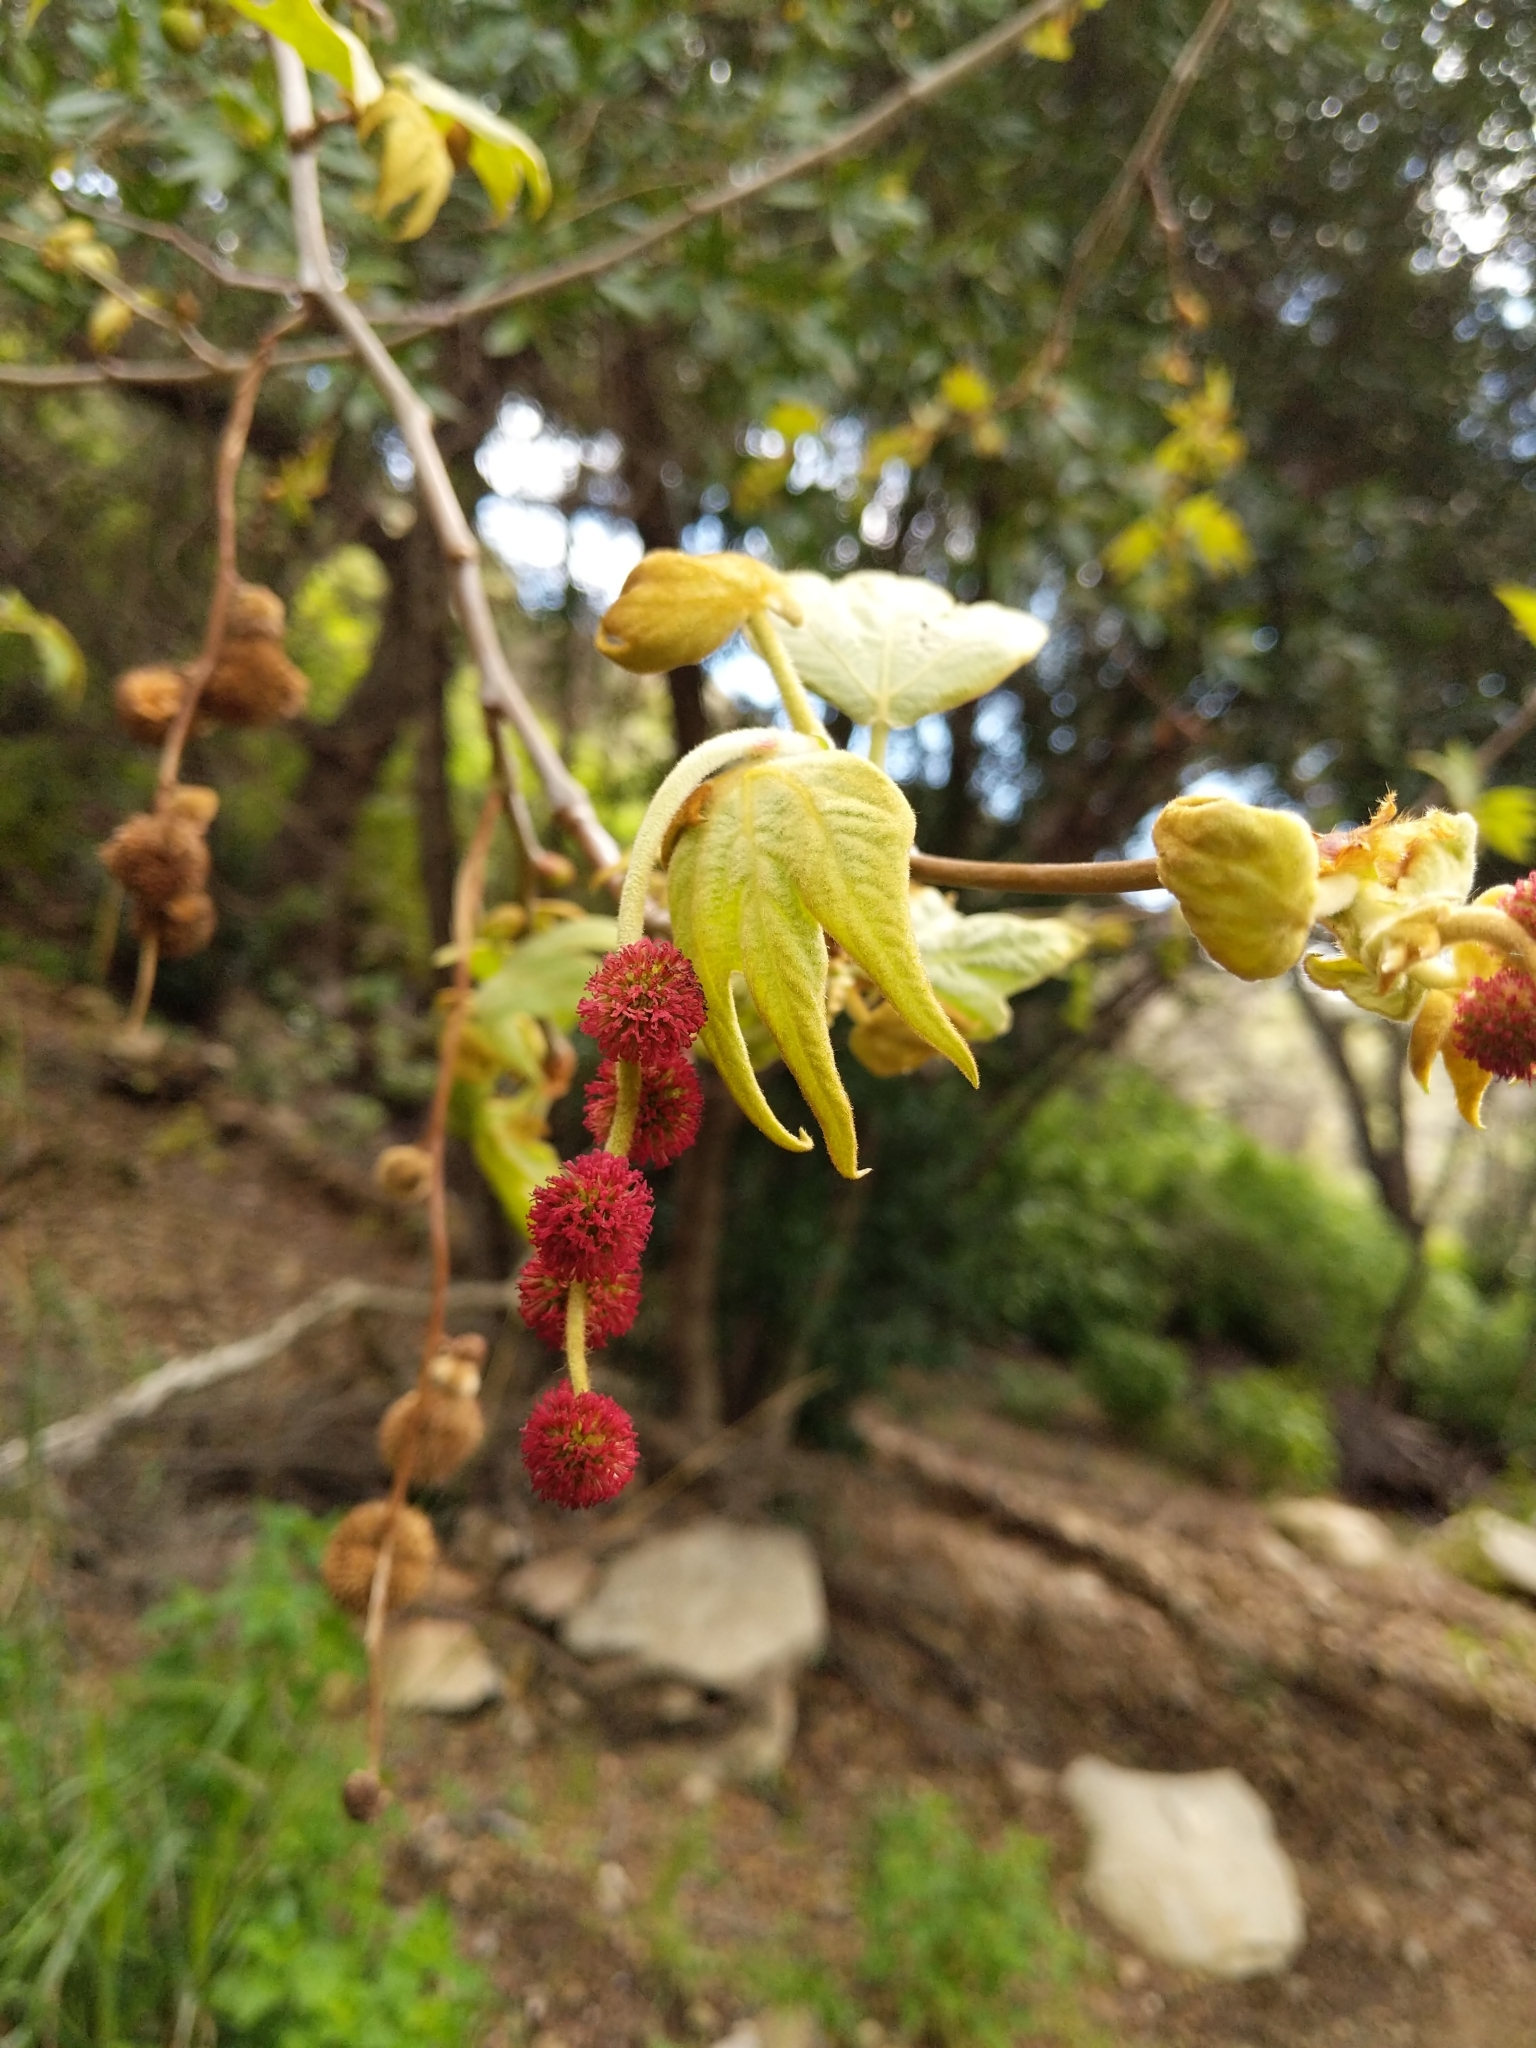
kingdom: Plantae
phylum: Tracheophyta
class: Magnoliopsida
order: Proteales
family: Platanaceae
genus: Platanus
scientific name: Platanus racemosa
